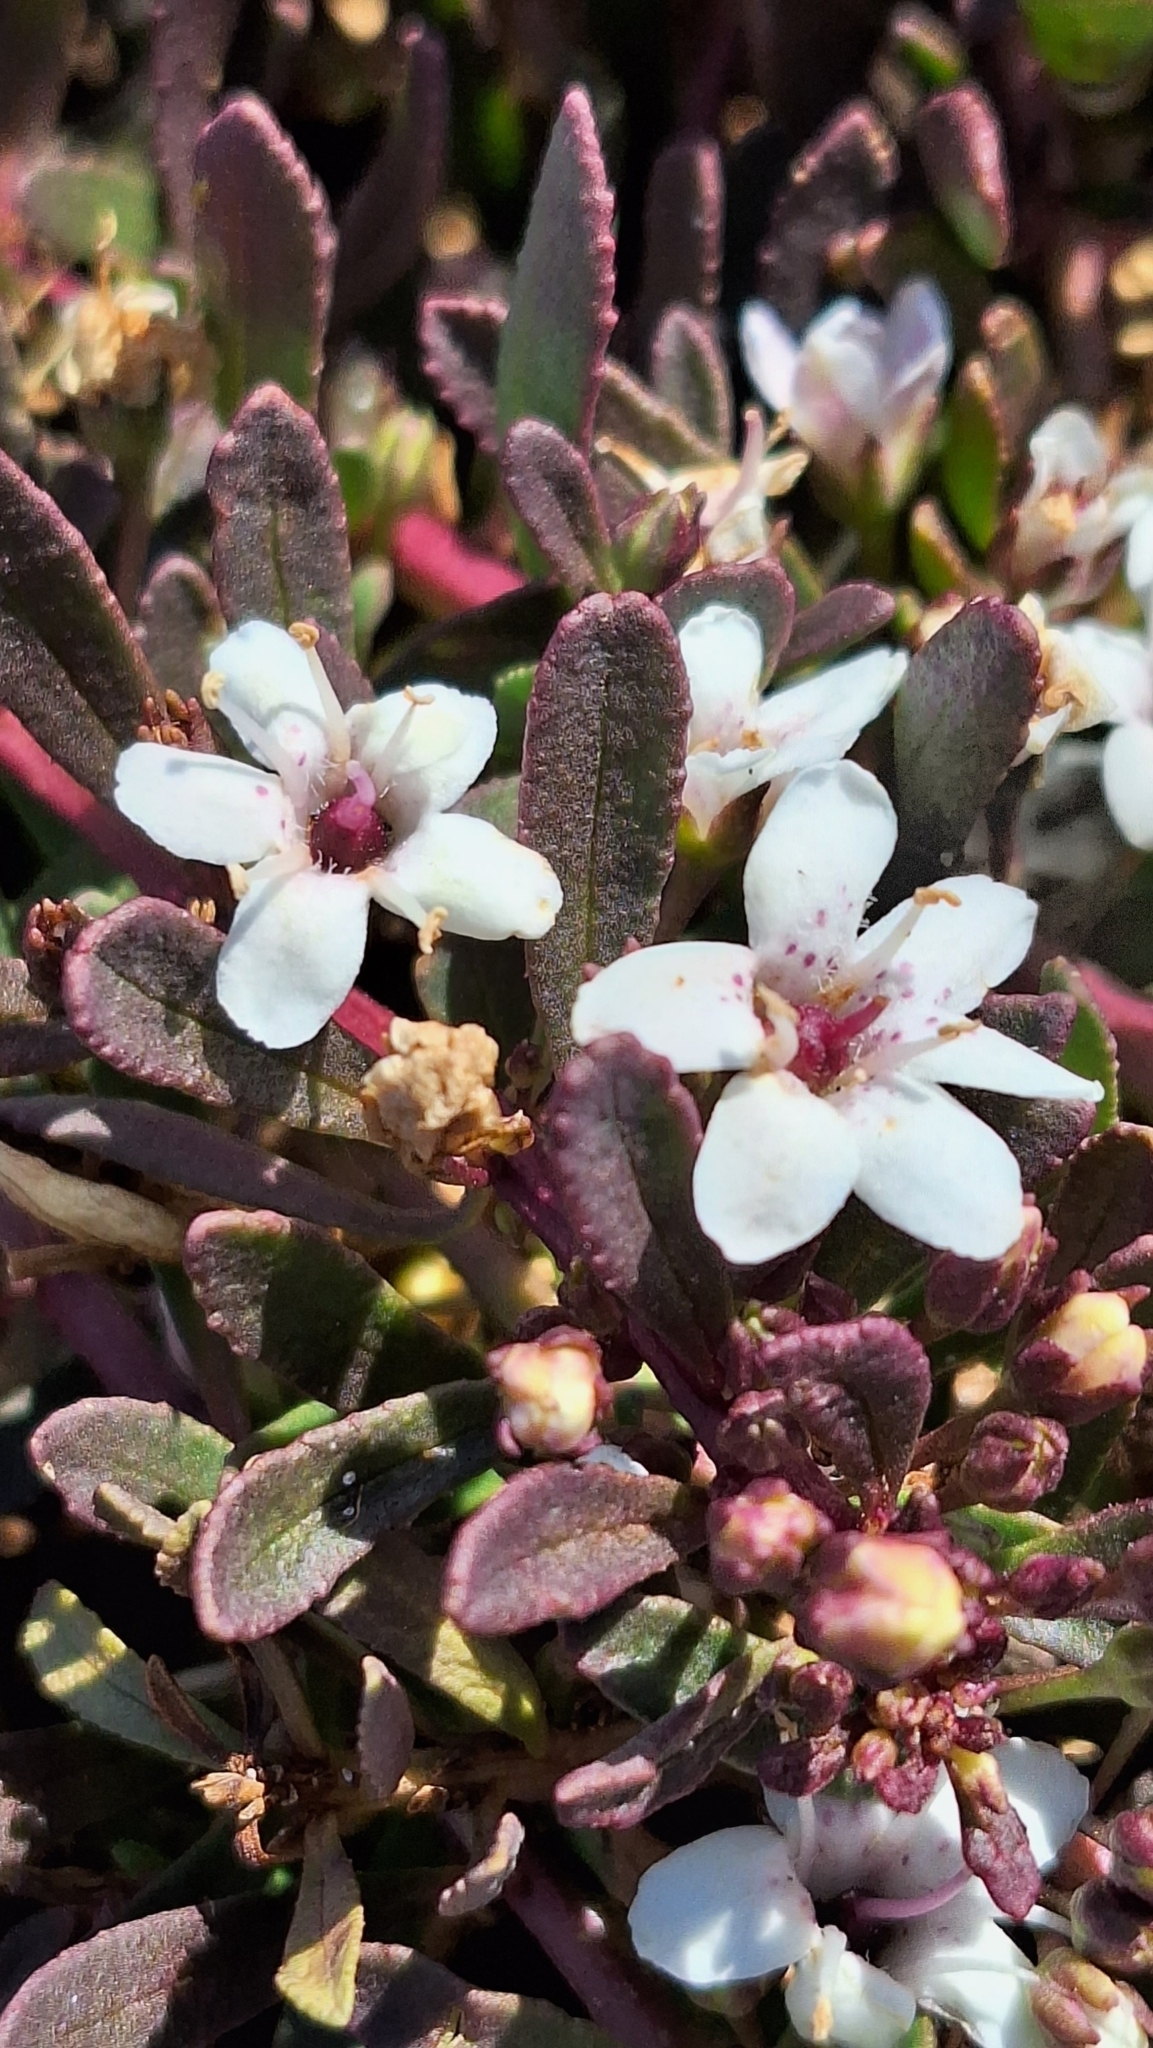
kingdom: Plantae
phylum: Tracheophyta
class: Magnoliopsida
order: Lamiales
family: Scrophulariaceae
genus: Myoporum
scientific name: Myoporum parvifolium
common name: Dwarf native-myrtle
